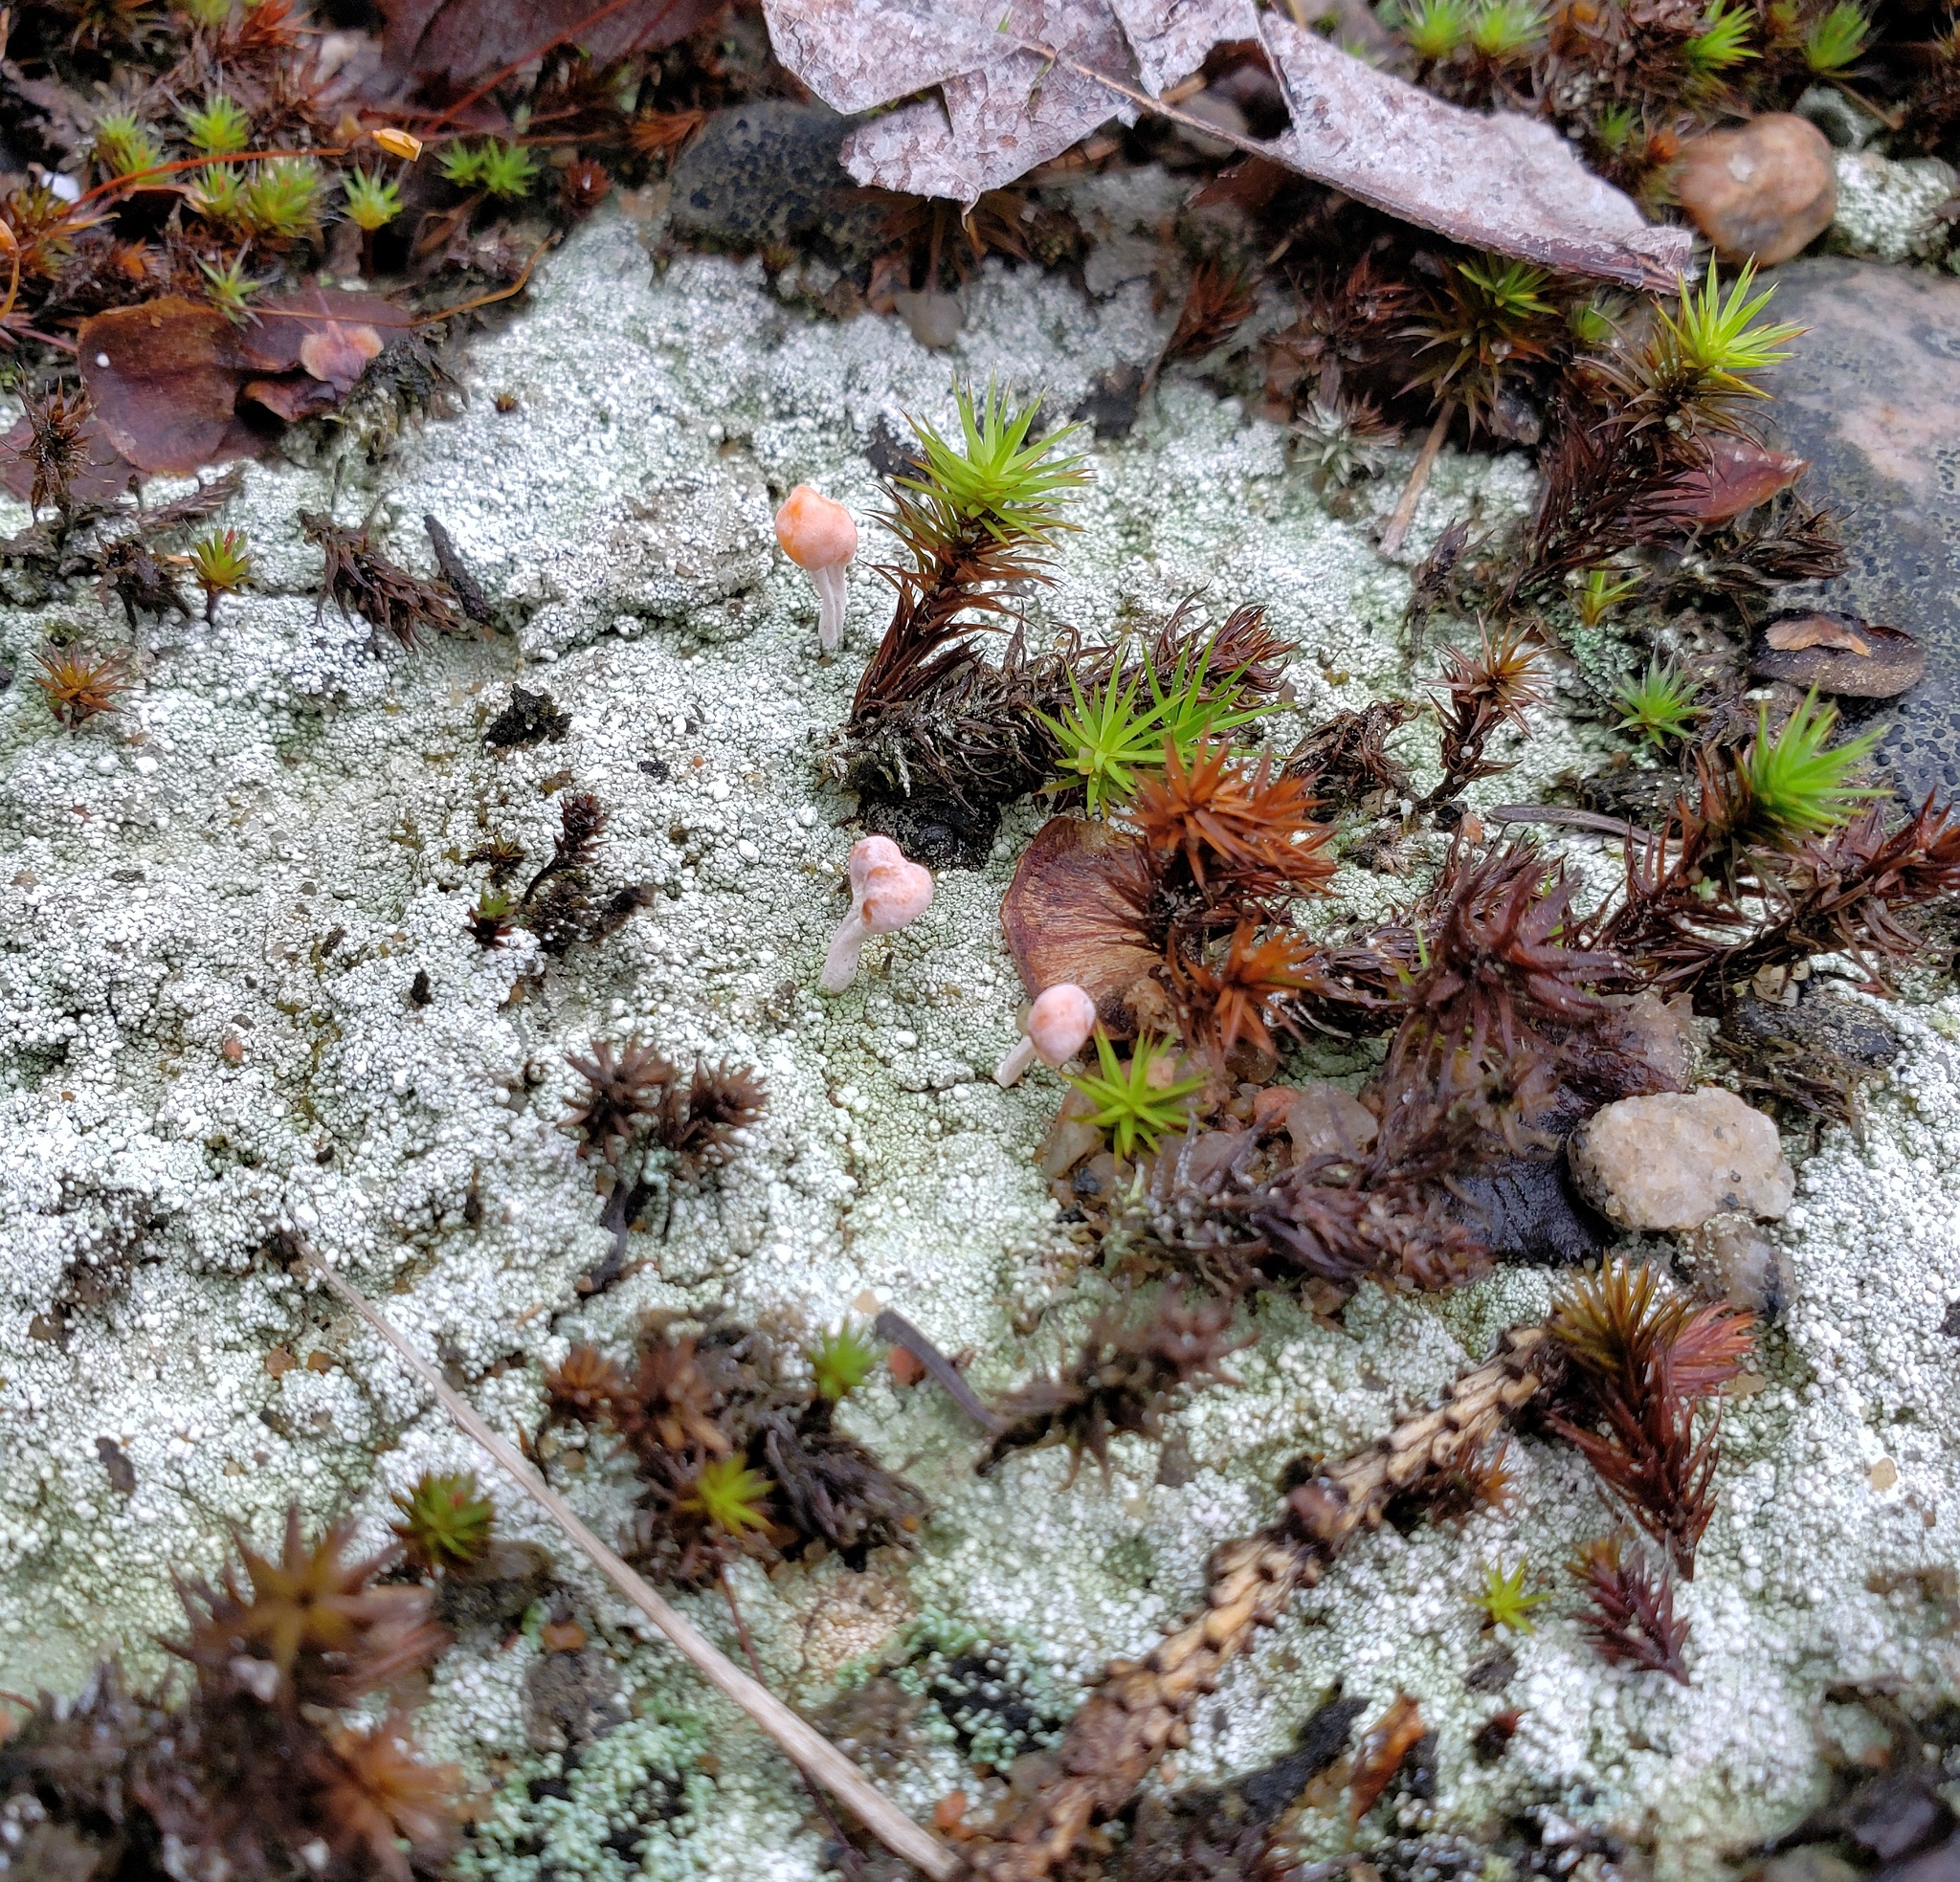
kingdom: Fungi
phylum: Ascomycota
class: Lecanoromycetes
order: Pertusariales
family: Icmadophilaceae
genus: Dibaeis
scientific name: Dibaeis baeomyces
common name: Pink earth lichen
